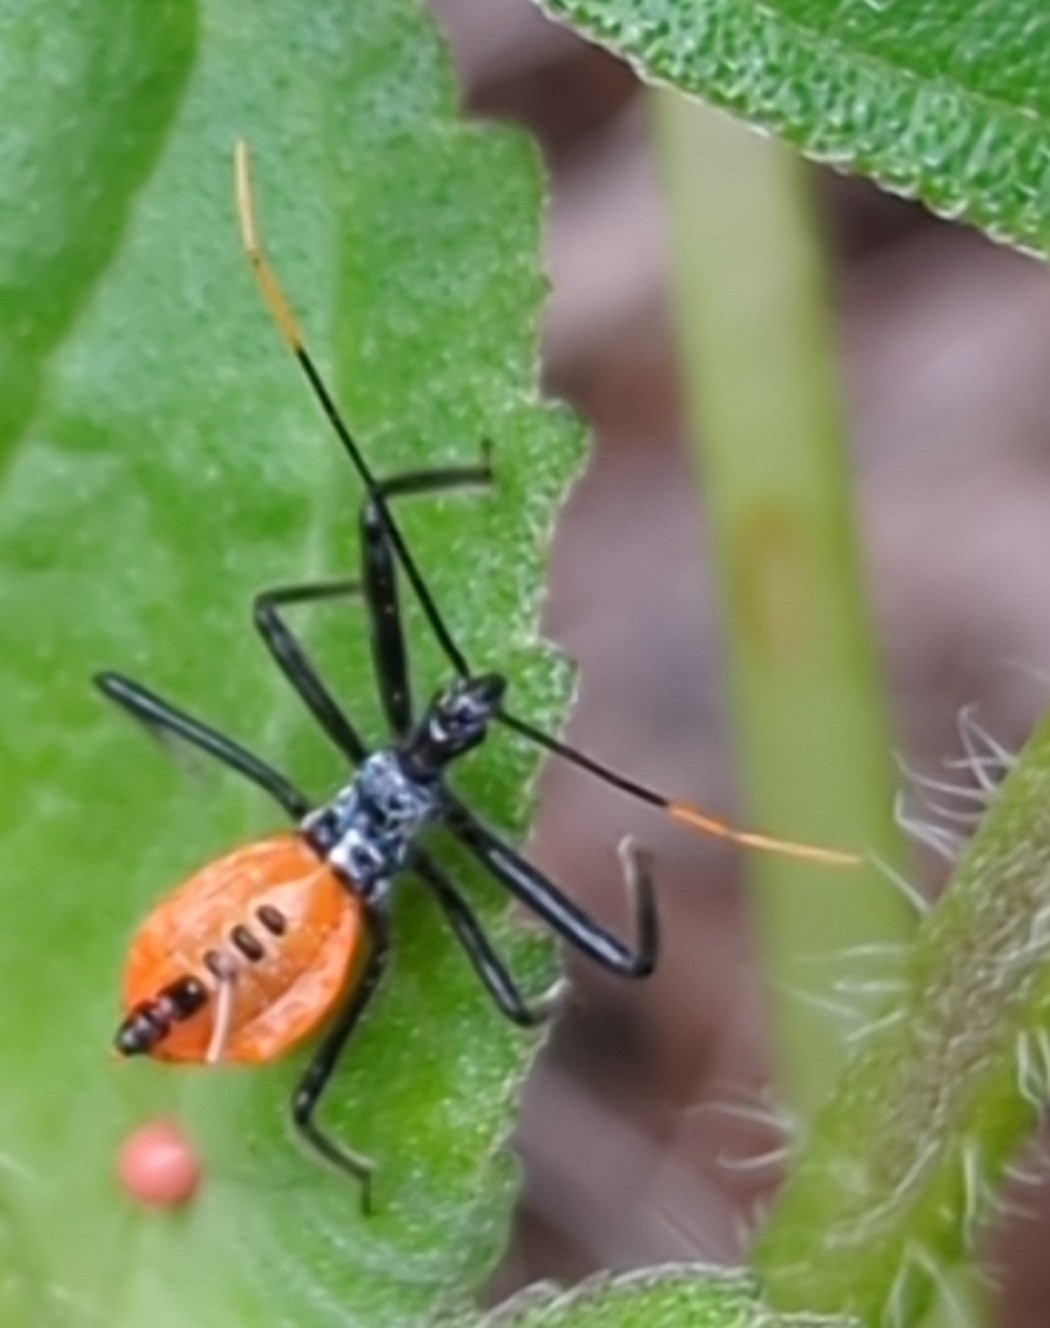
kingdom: Animalia
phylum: Arthropoda
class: Insecta
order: Hemiptera
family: Reduviidae
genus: Arilus
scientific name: Arilus cristatus
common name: North american wheel bug
